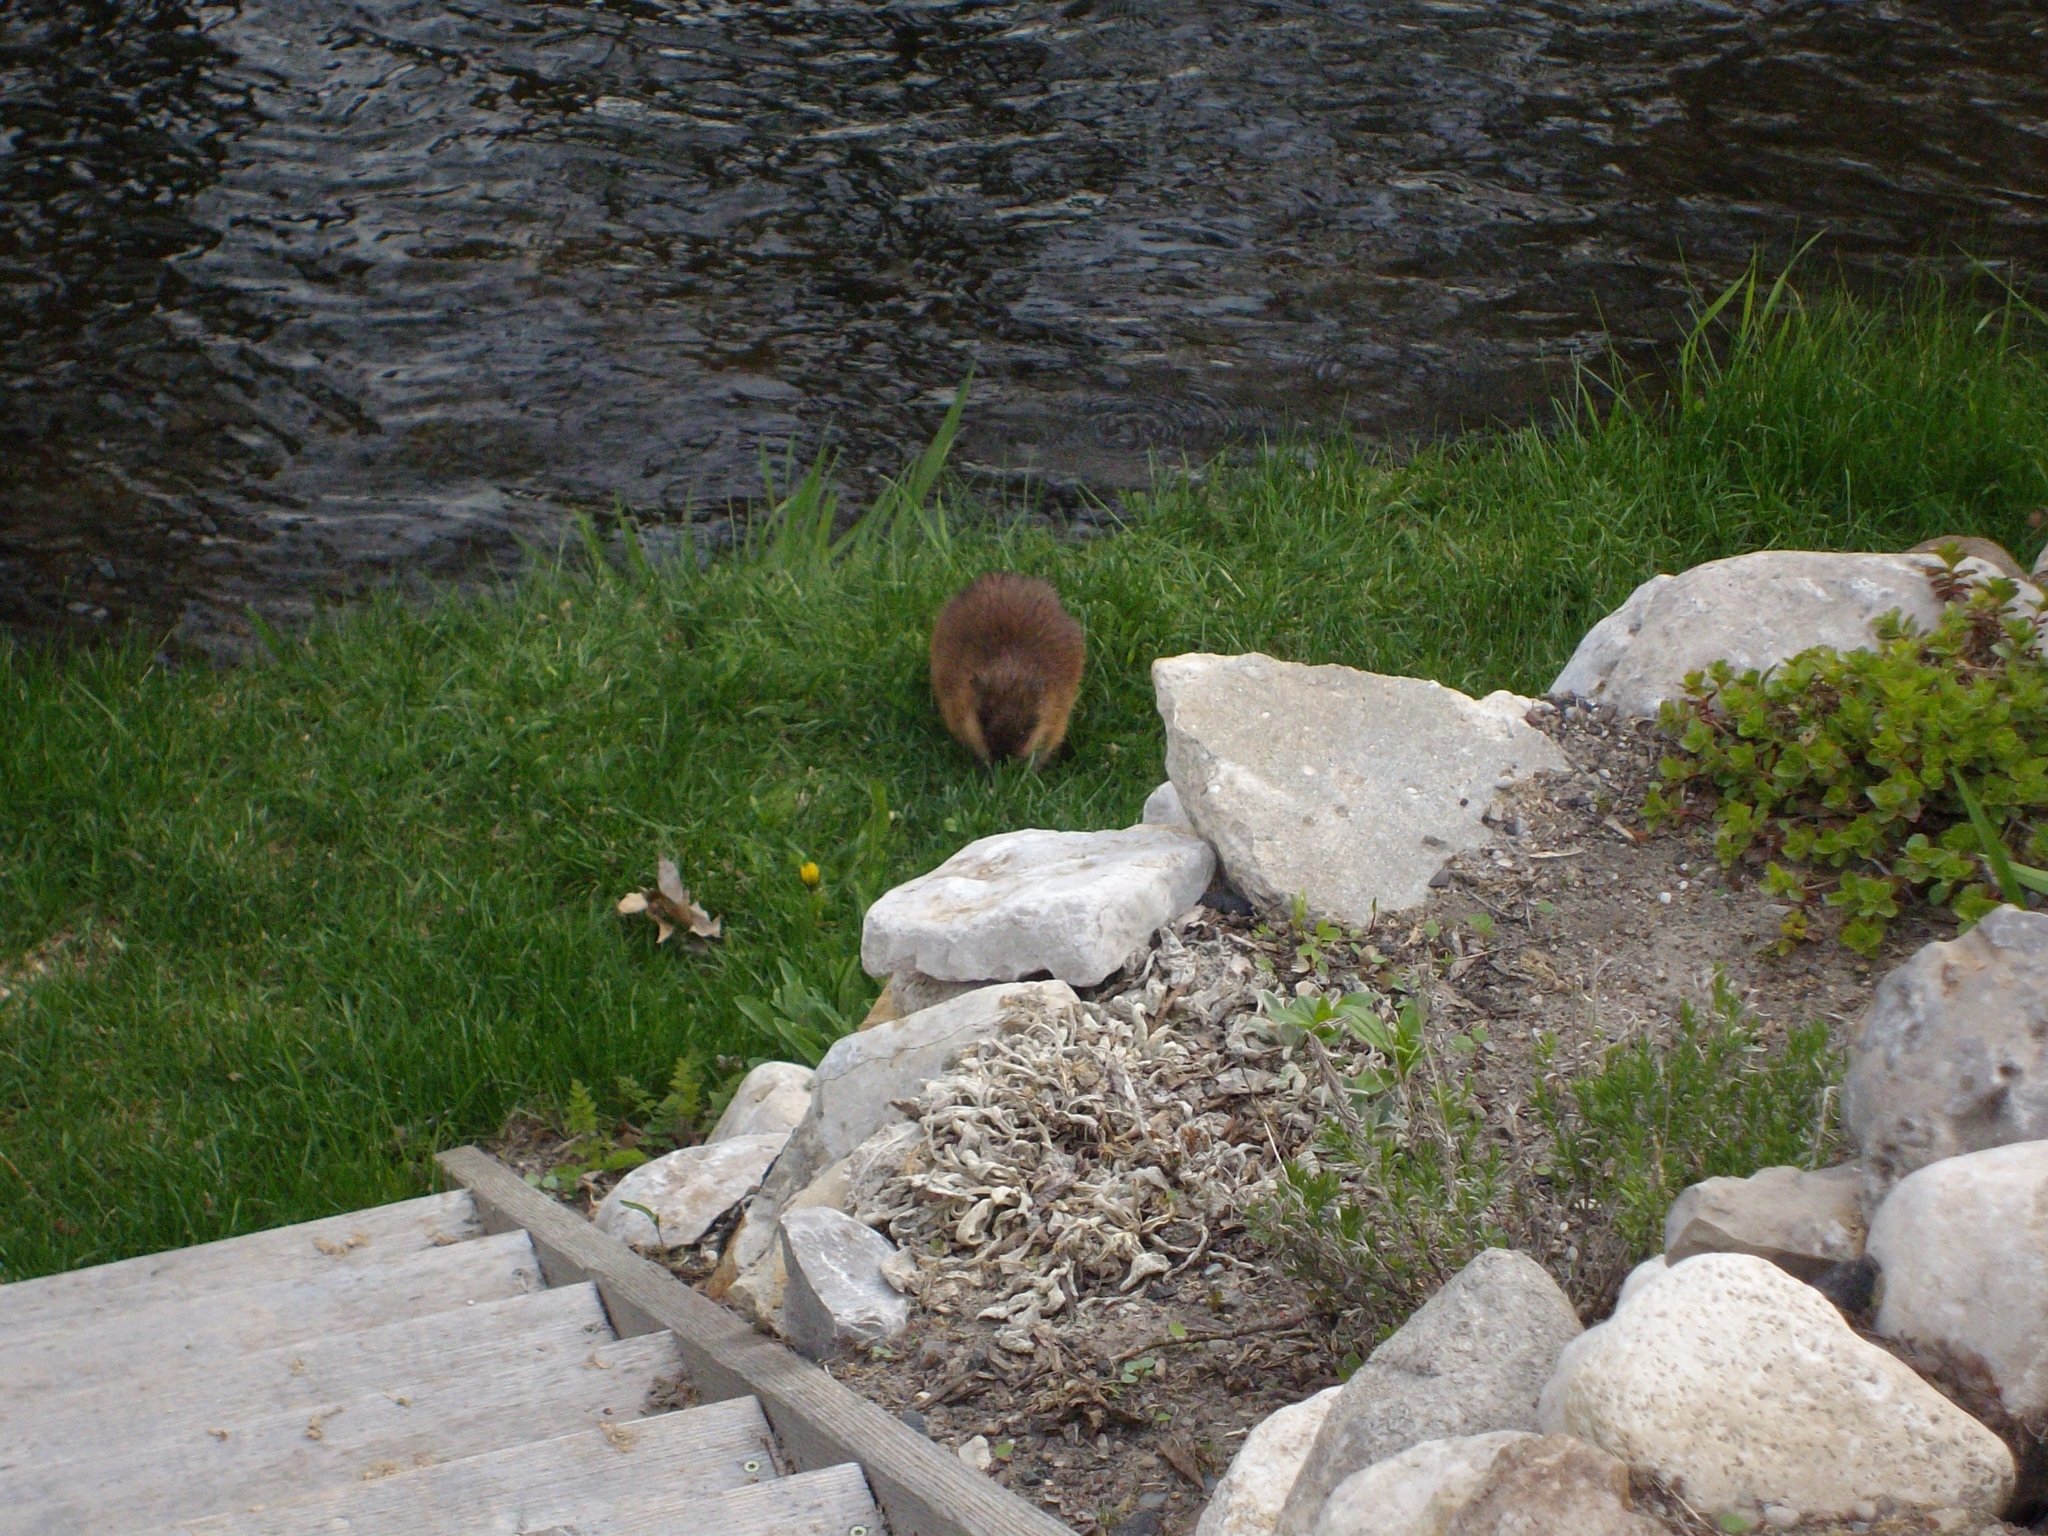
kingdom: Animalia
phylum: Chordata
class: Mammalia
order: Rodentia
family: Cricetidae
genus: Ondatra
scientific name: Ondatra zibethicus
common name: Muskrat
